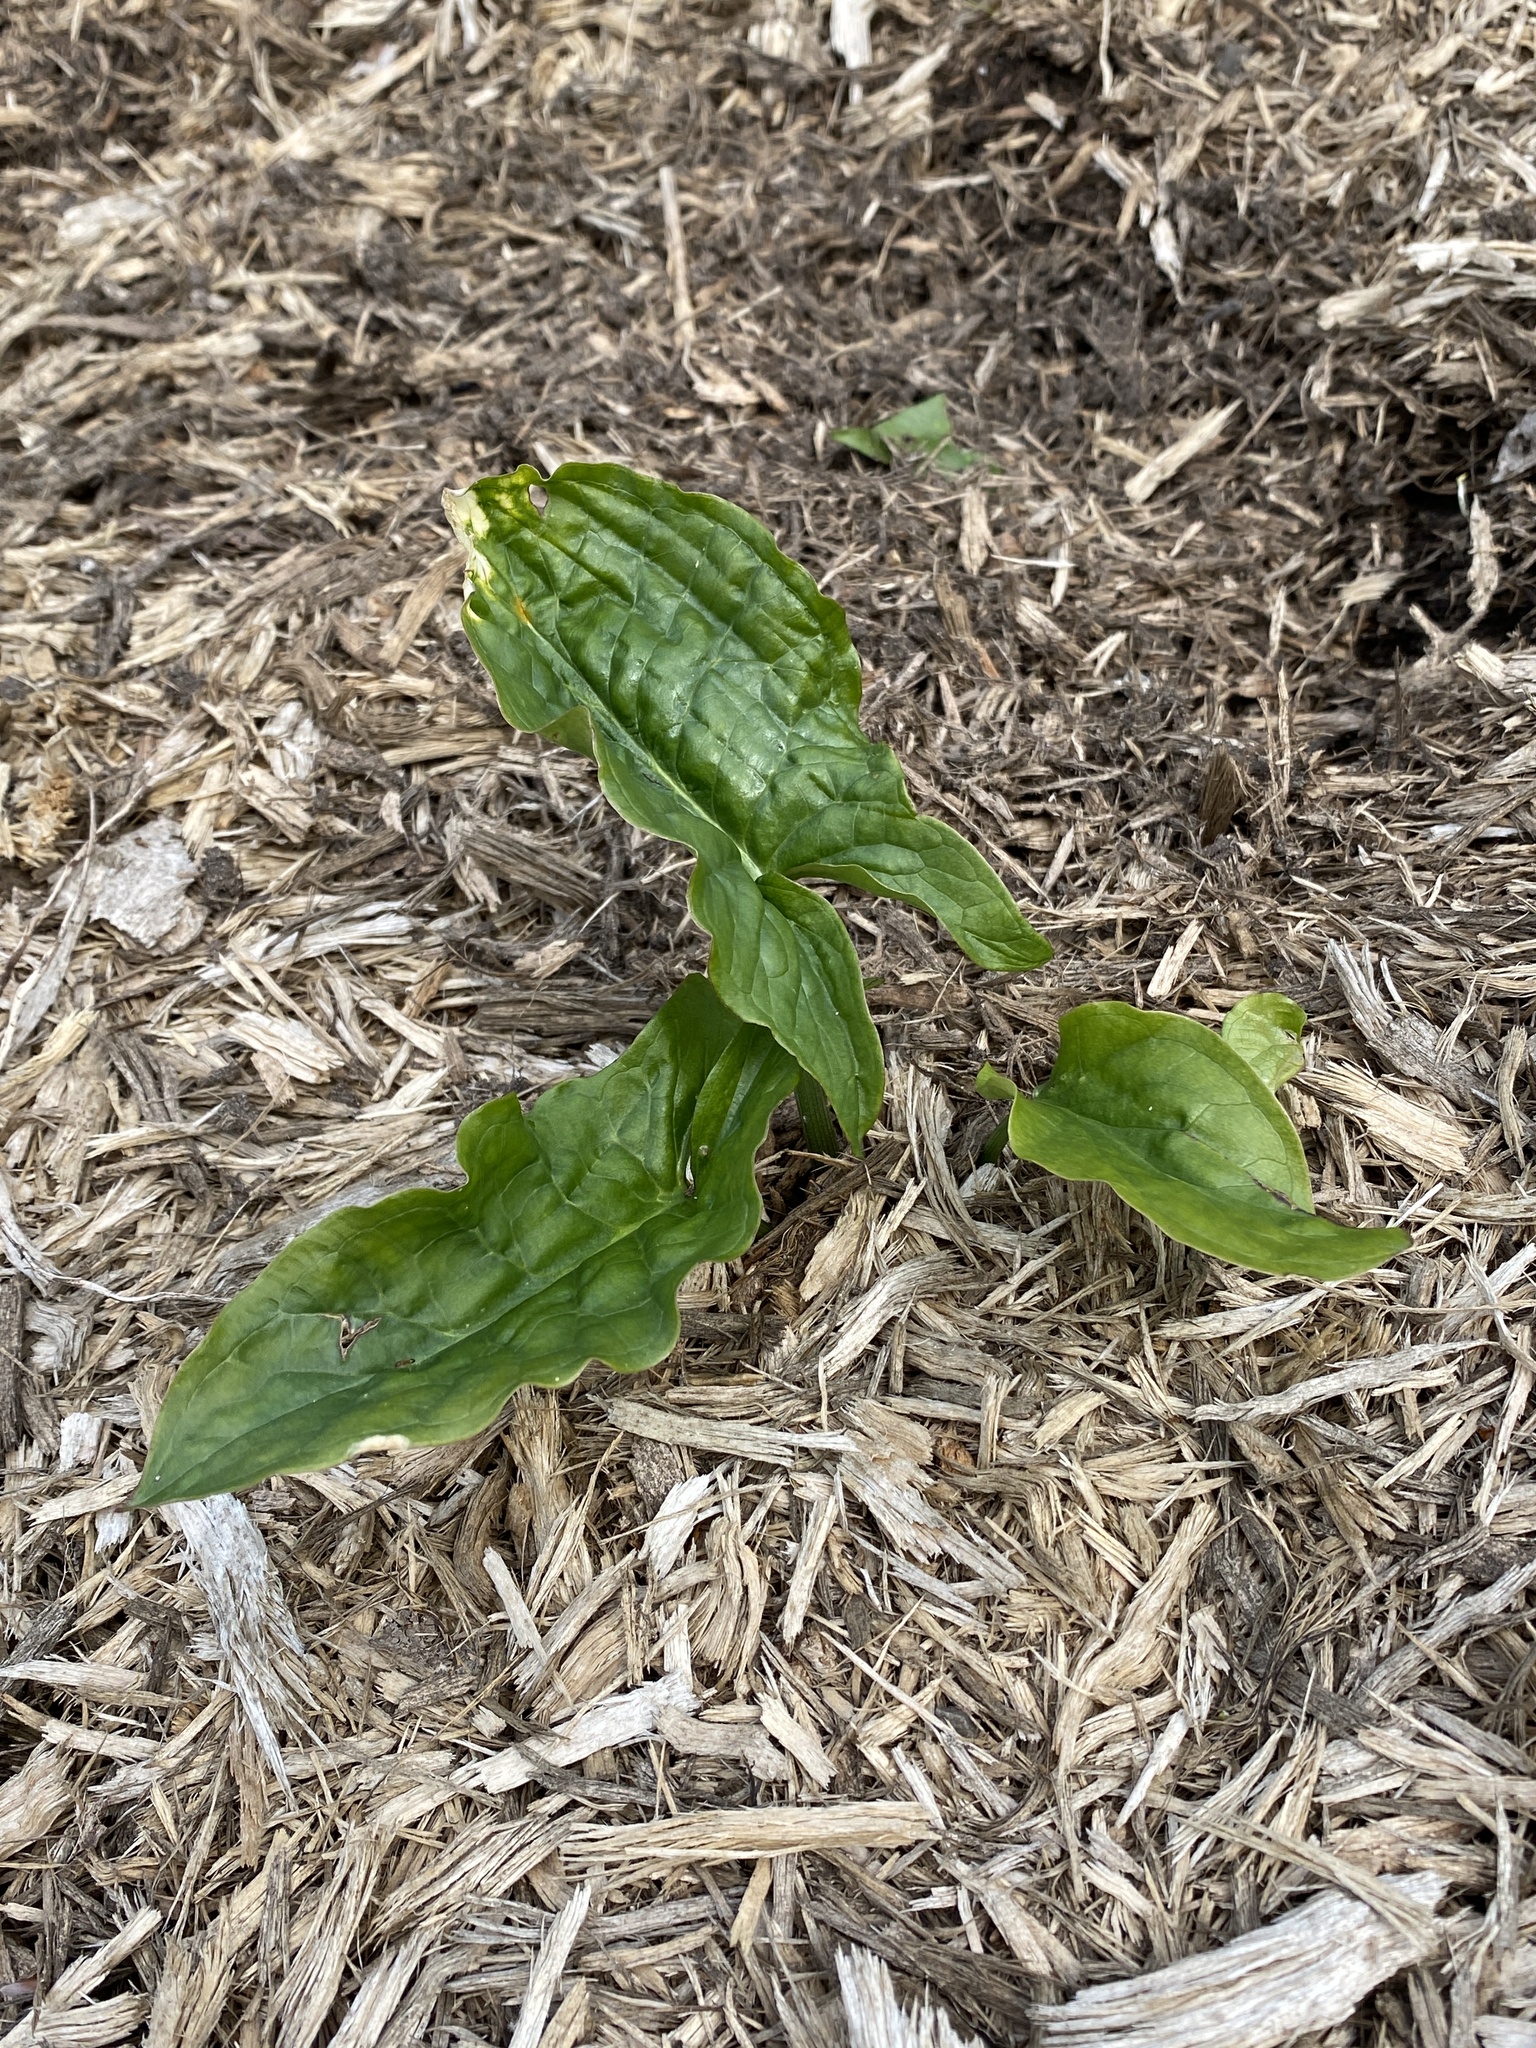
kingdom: Plantae
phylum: Tracheophyta
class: Liliopsida
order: Alismatales
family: Araceae
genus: Arum
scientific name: Arum maculatum
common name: Lords-and-ladies
